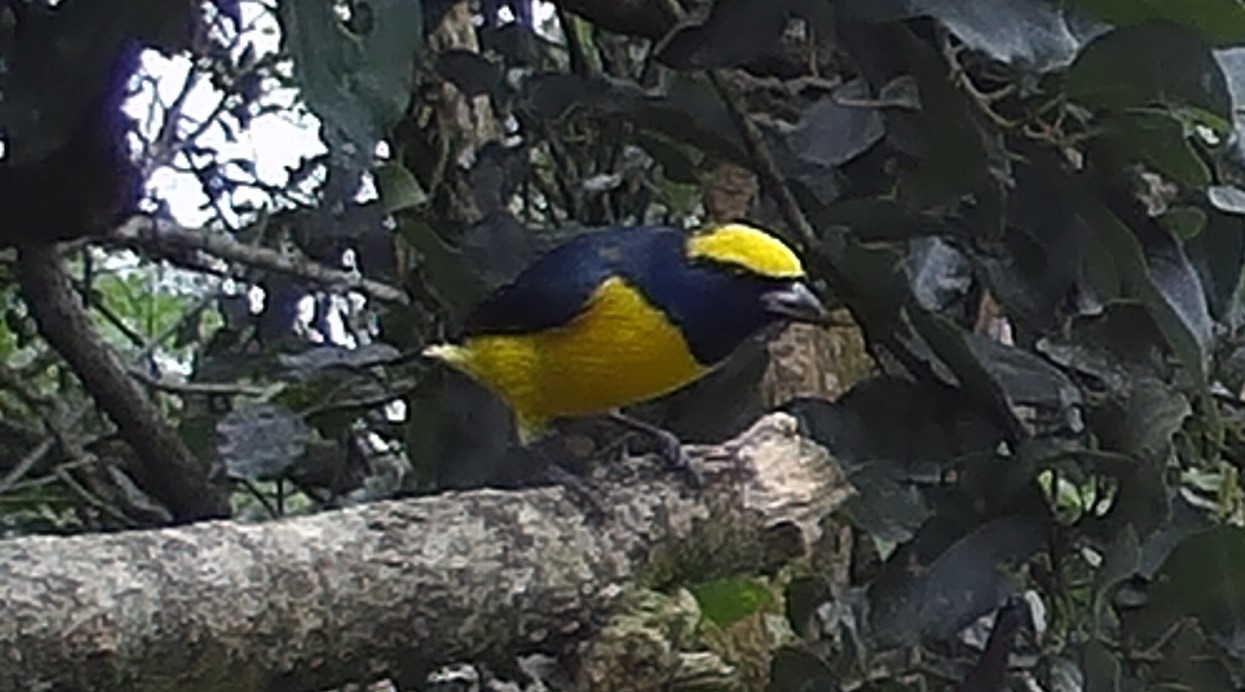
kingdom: Animalia
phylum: Chordata
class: Aves
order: Passeriformes
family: Fringillidae
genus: Euphonia
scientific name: Euphonia luteicapilla
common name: Yellow-crowned euphonia
